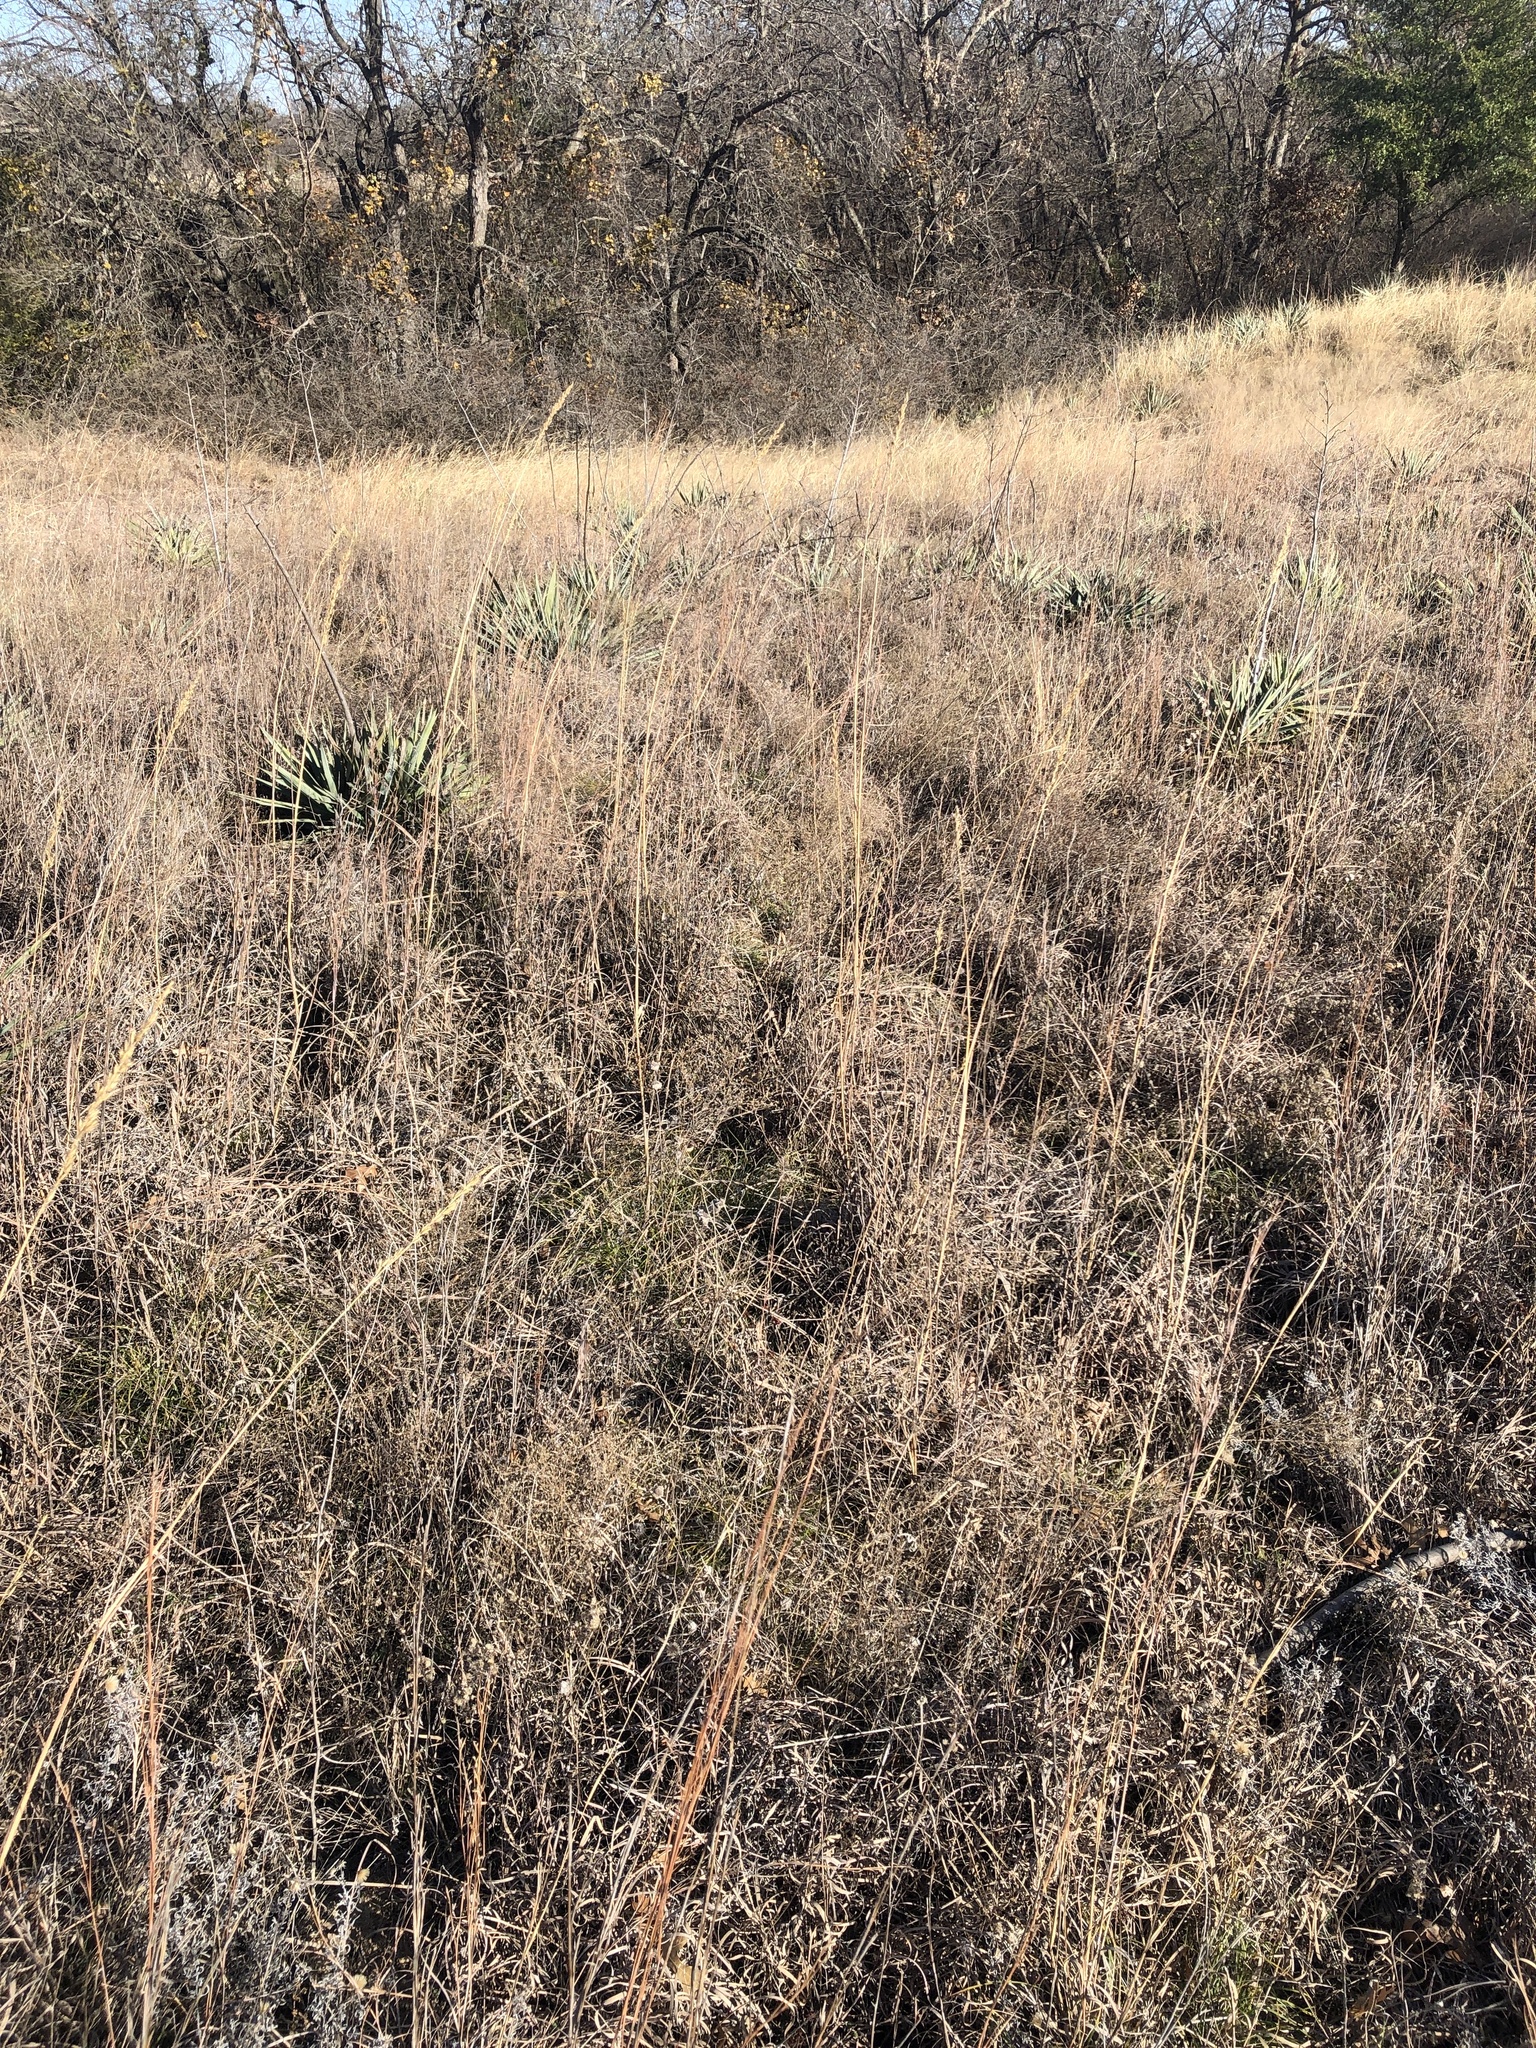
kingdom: Plantae
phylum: Tracheophyta
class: Liliopsida
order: Poales
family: Poaceae
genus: Sorghastrum
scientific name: Sorghastrum nutans
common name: Indian grass
